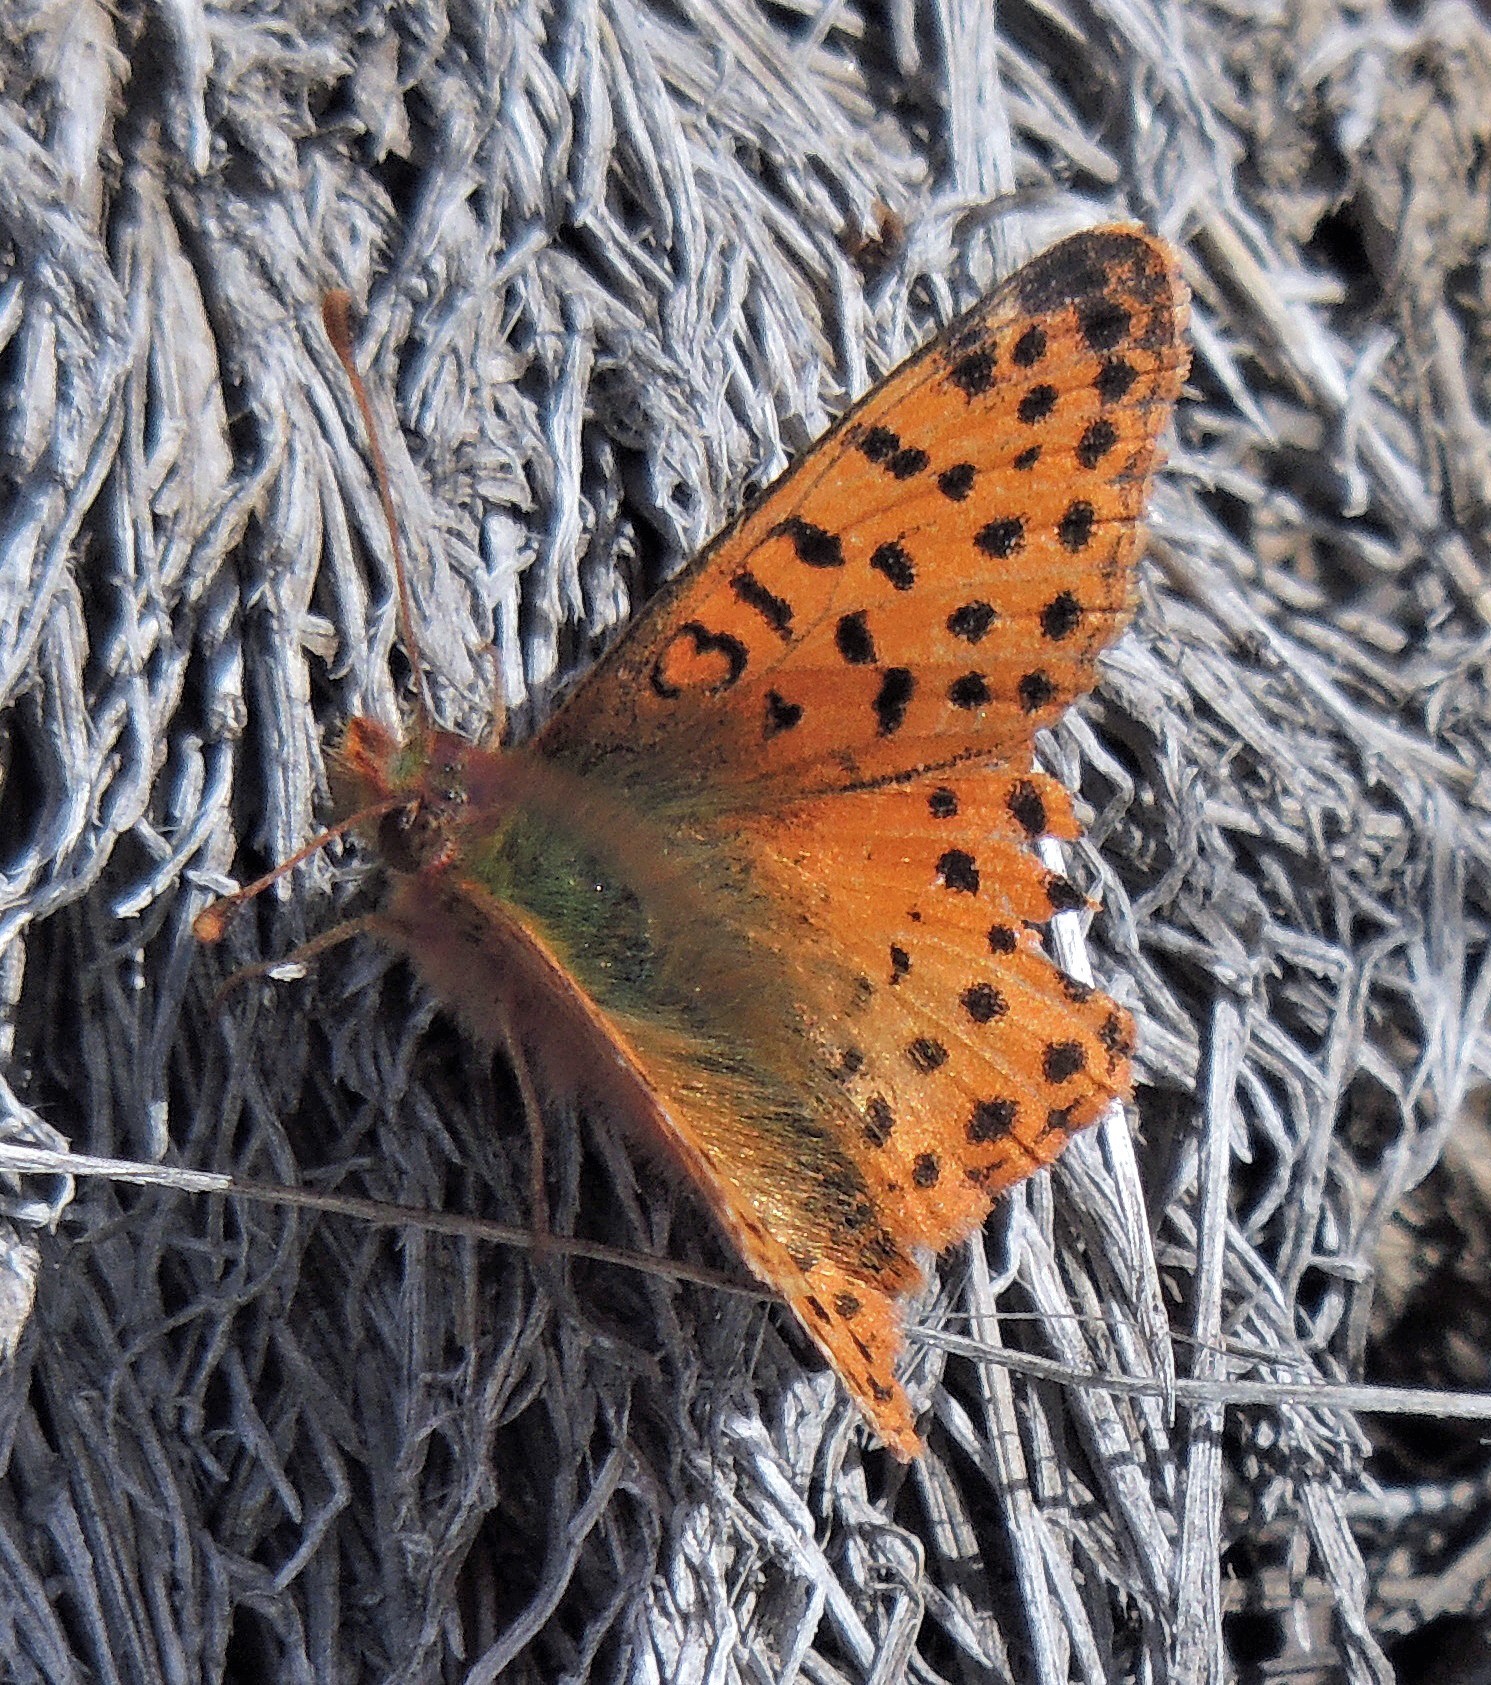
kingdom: Animalia
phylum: Arthropoda
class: Insecta
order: Lepidoptera
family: Nymphalidae
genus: Issoria
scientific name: Issoria Yramea cytheris
